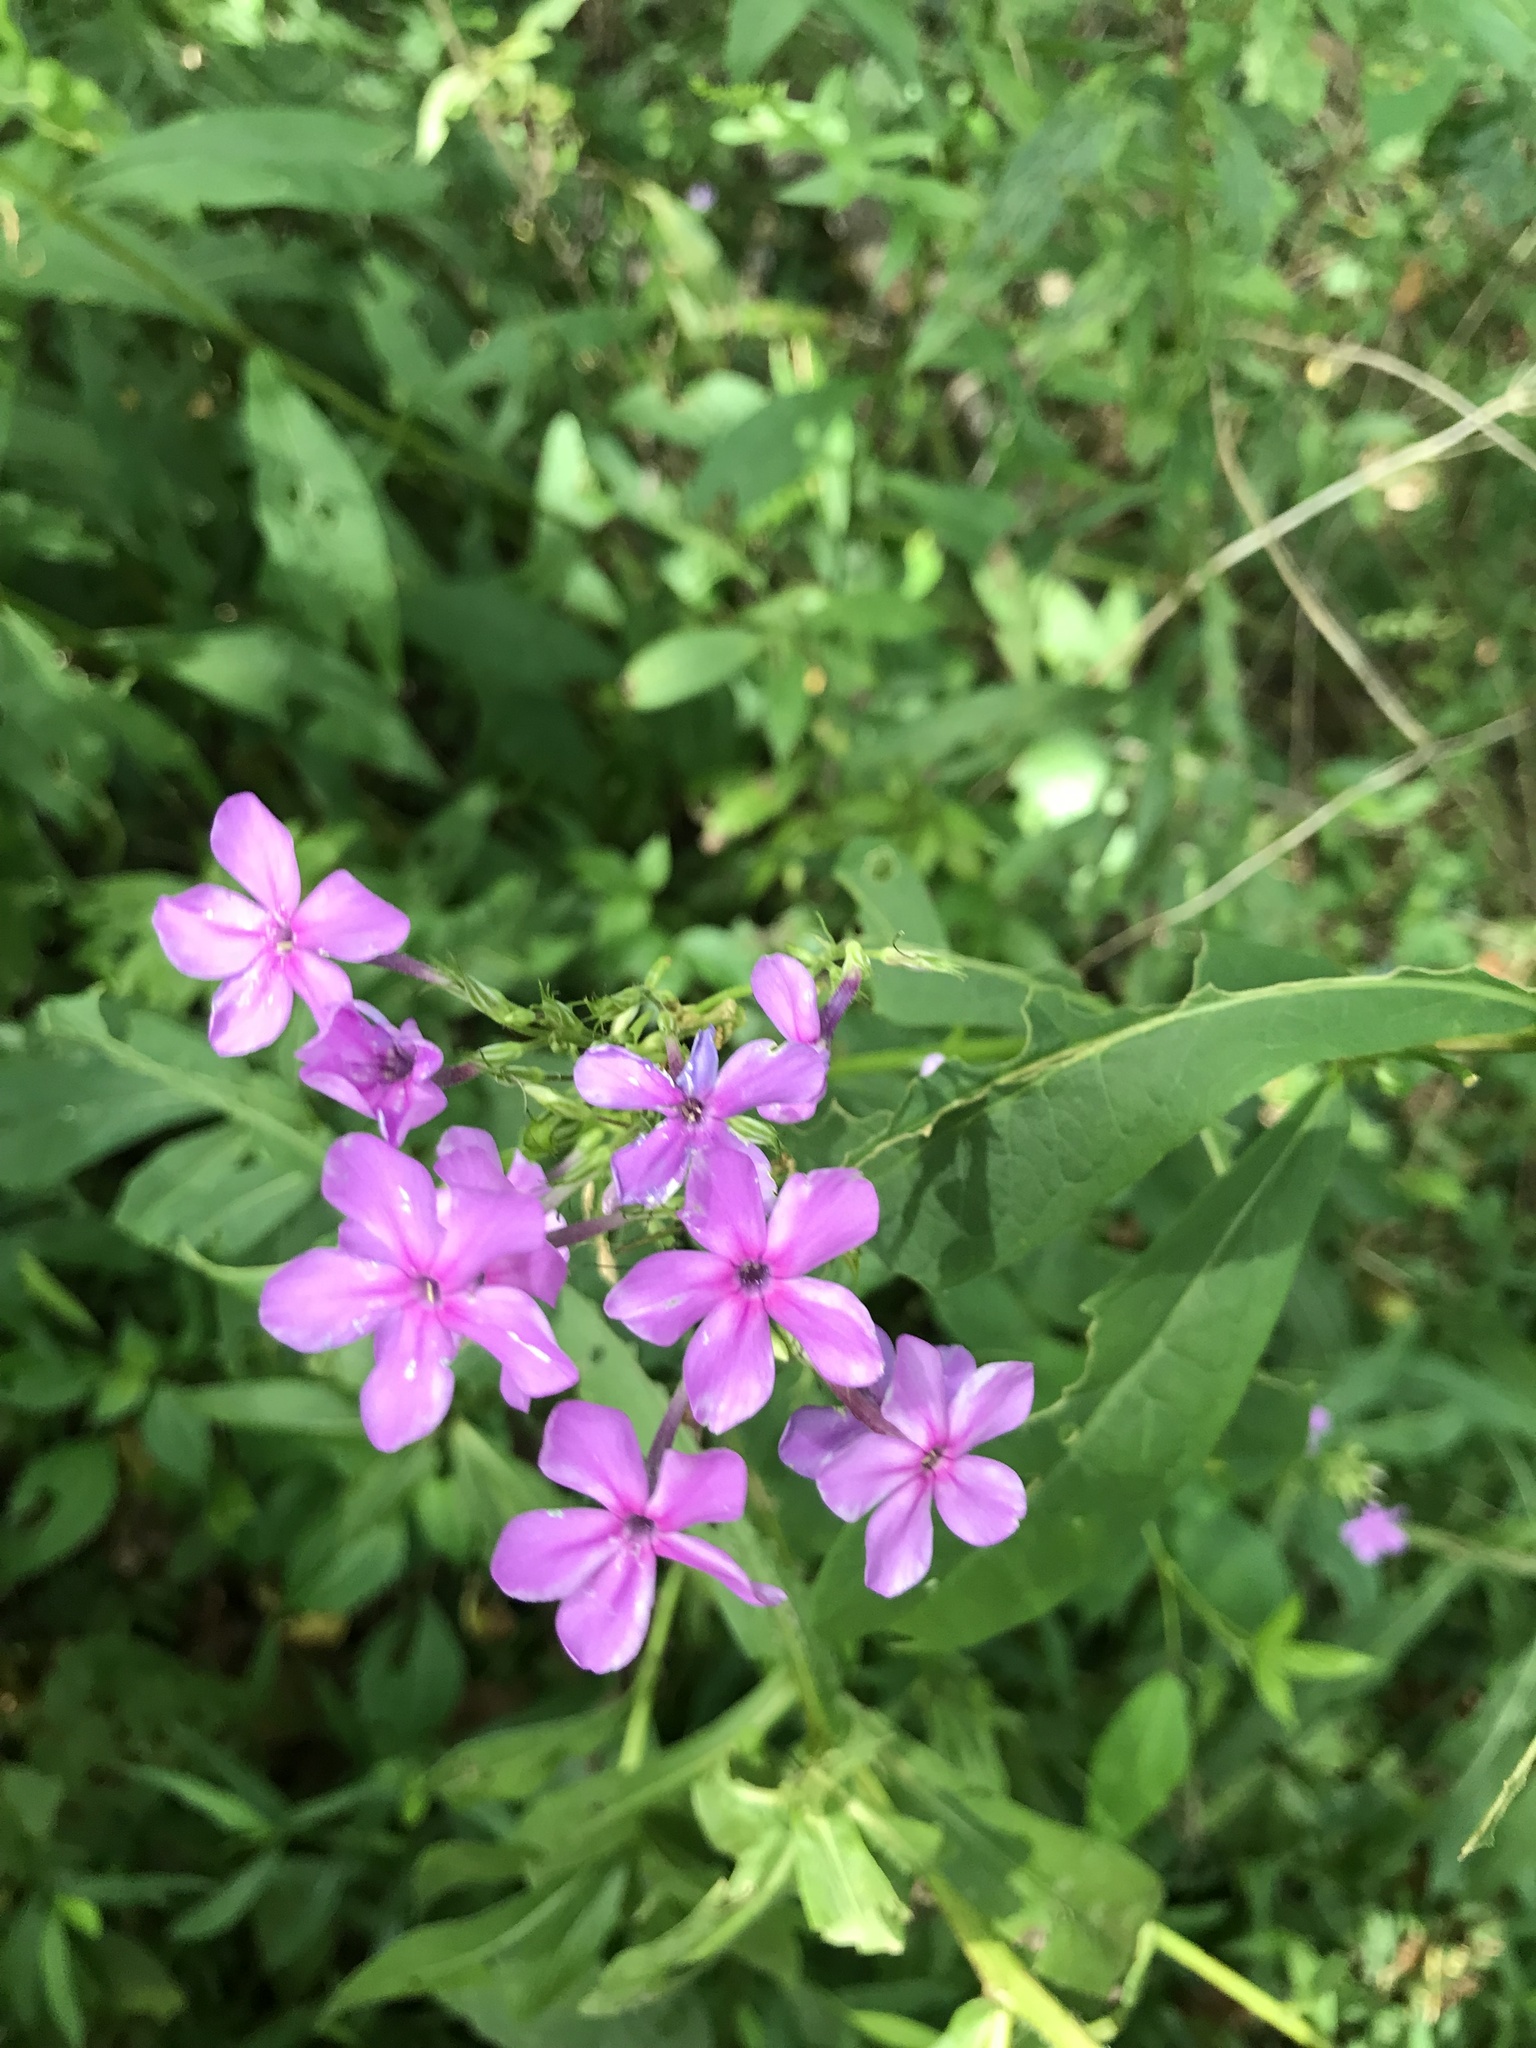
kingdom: Plantae
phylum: Tracheophyta
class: Magnoliopsida
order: Ericales
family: Polemoniaceae
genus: Phlox
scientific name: Phlox paniculata
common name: Fall phlox
